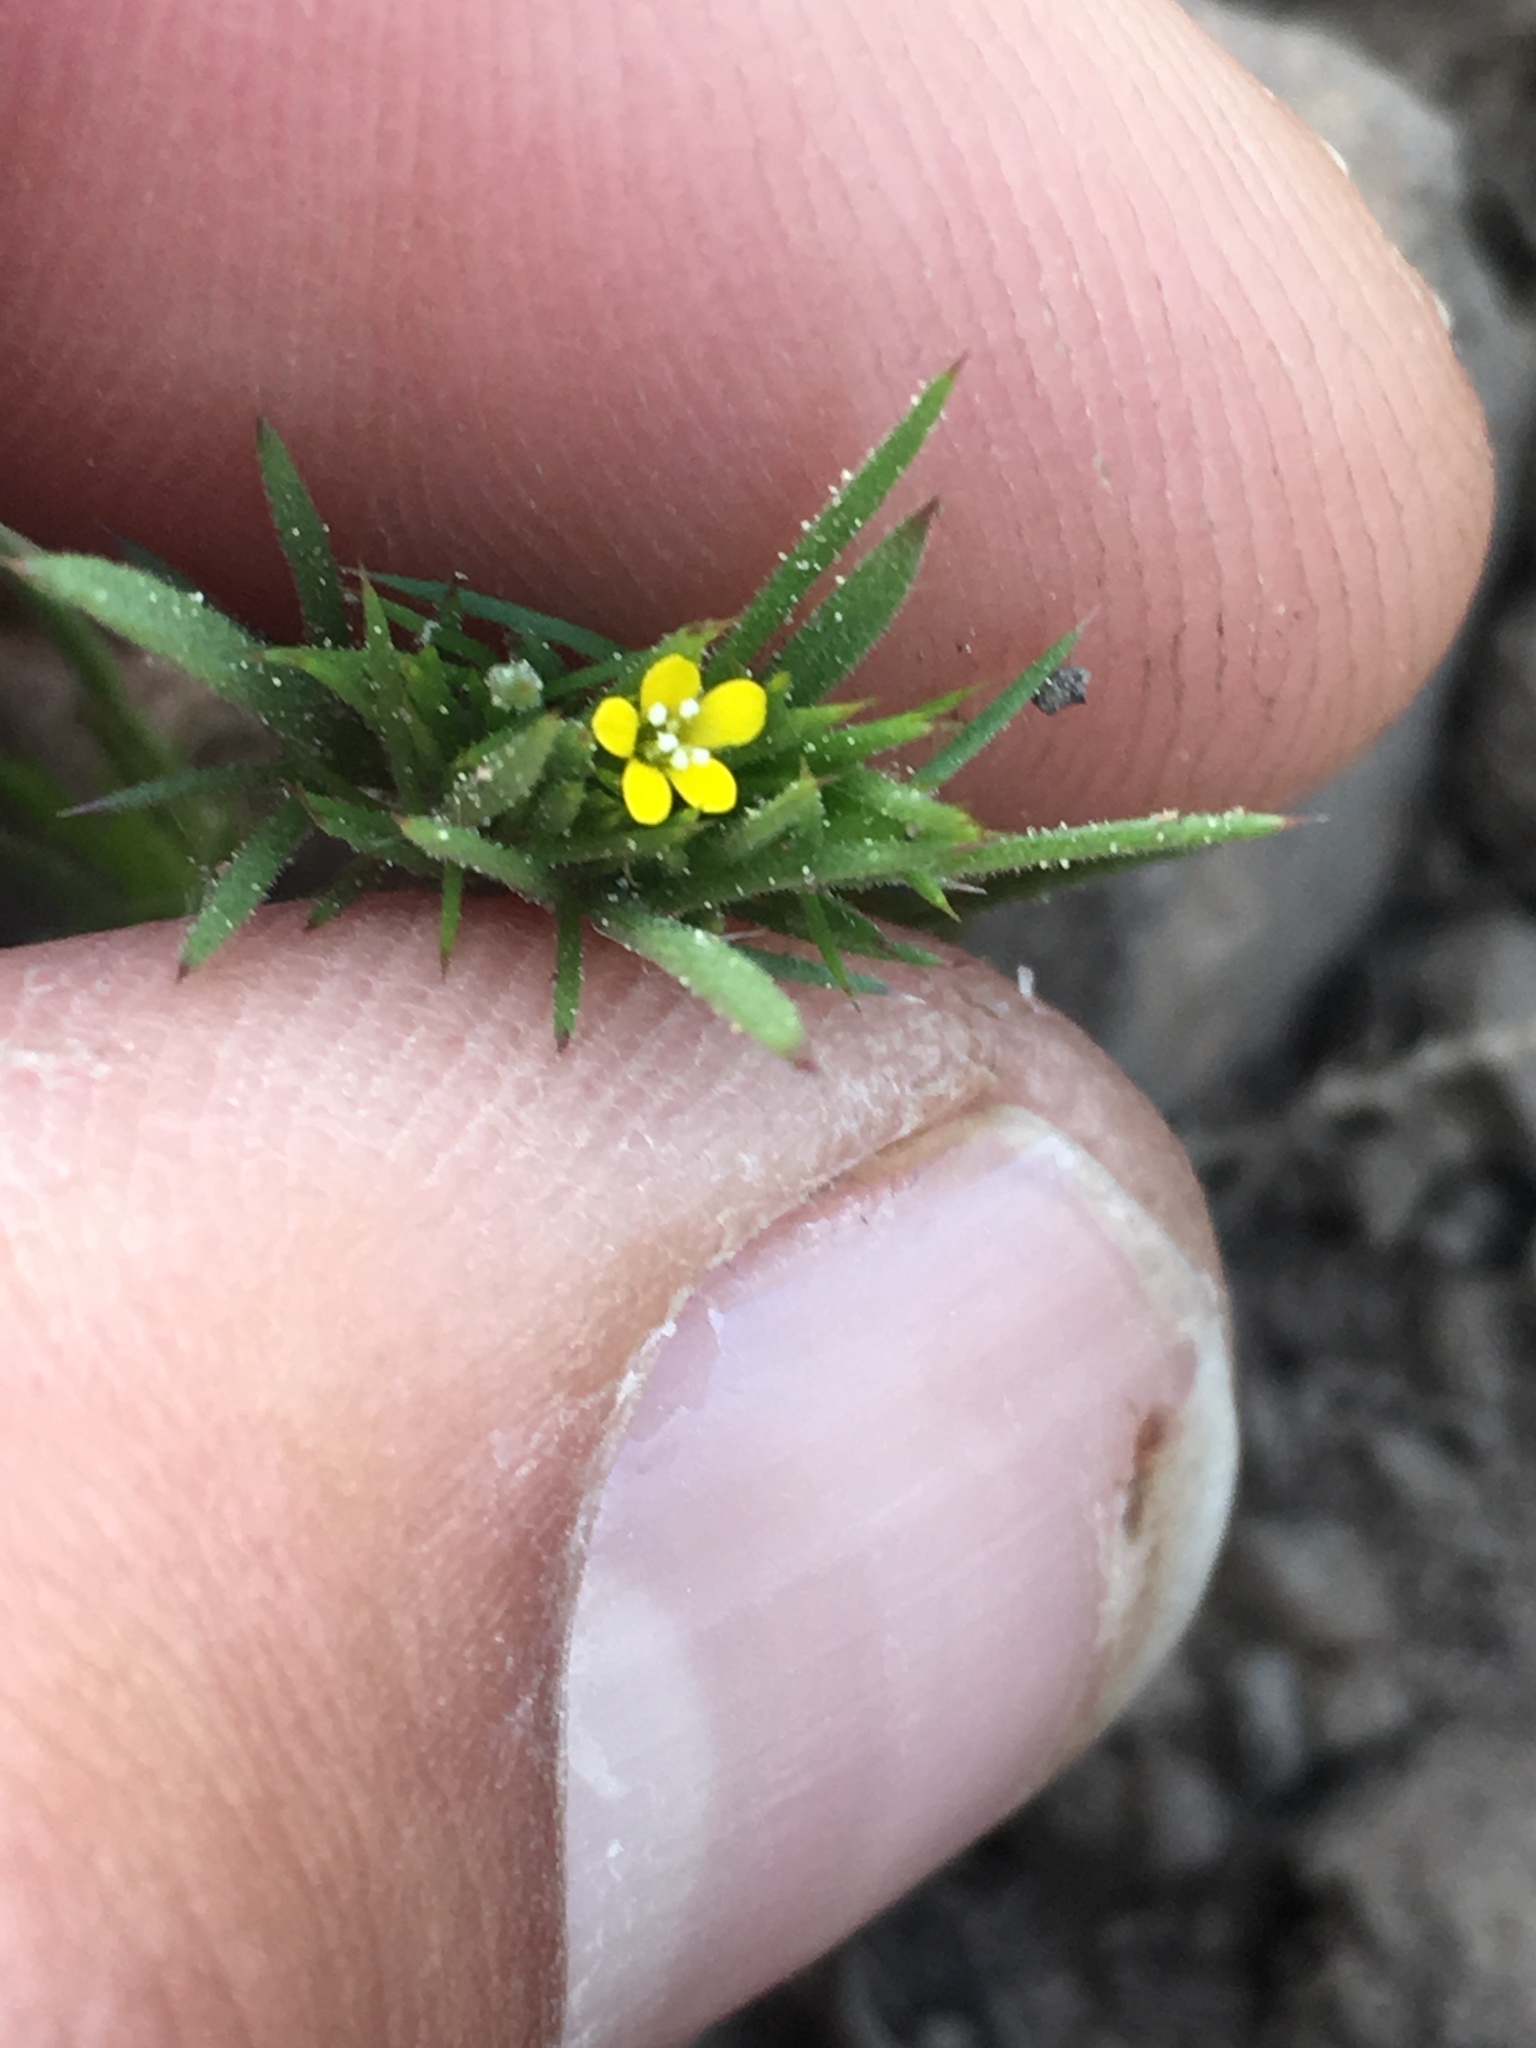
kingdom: Plantae
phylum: Tracheophyta
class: Magnoliopsida
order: Ericales
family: Polemoniaceae
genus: Navarretia
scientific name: Navarretia breweri
